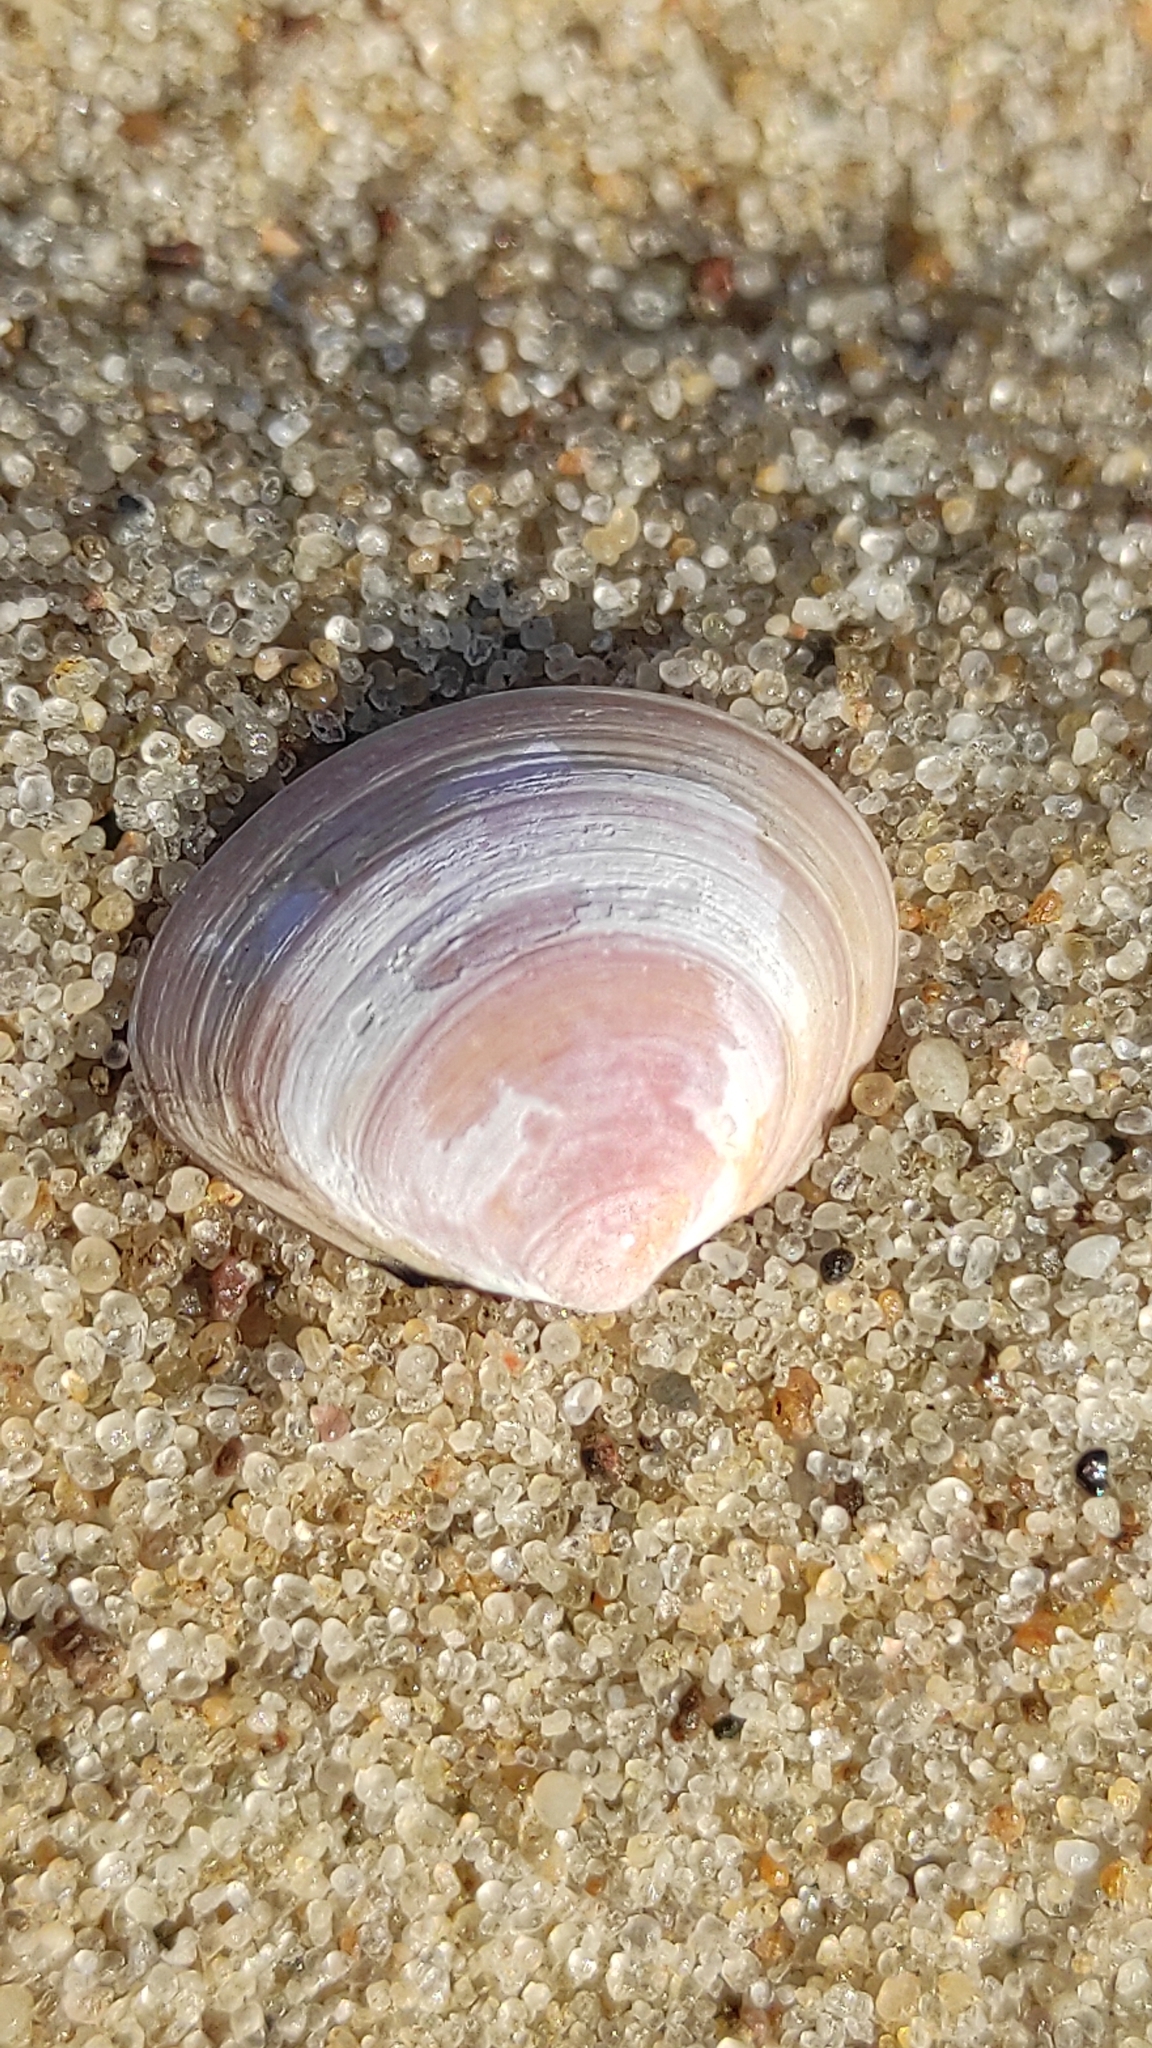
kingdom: Animalia
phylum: Mollusca
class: Bivalvia
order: Cardiida
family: Tellinidae
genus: Macoma
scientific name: Macoma balthica
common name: Baltic tellin
